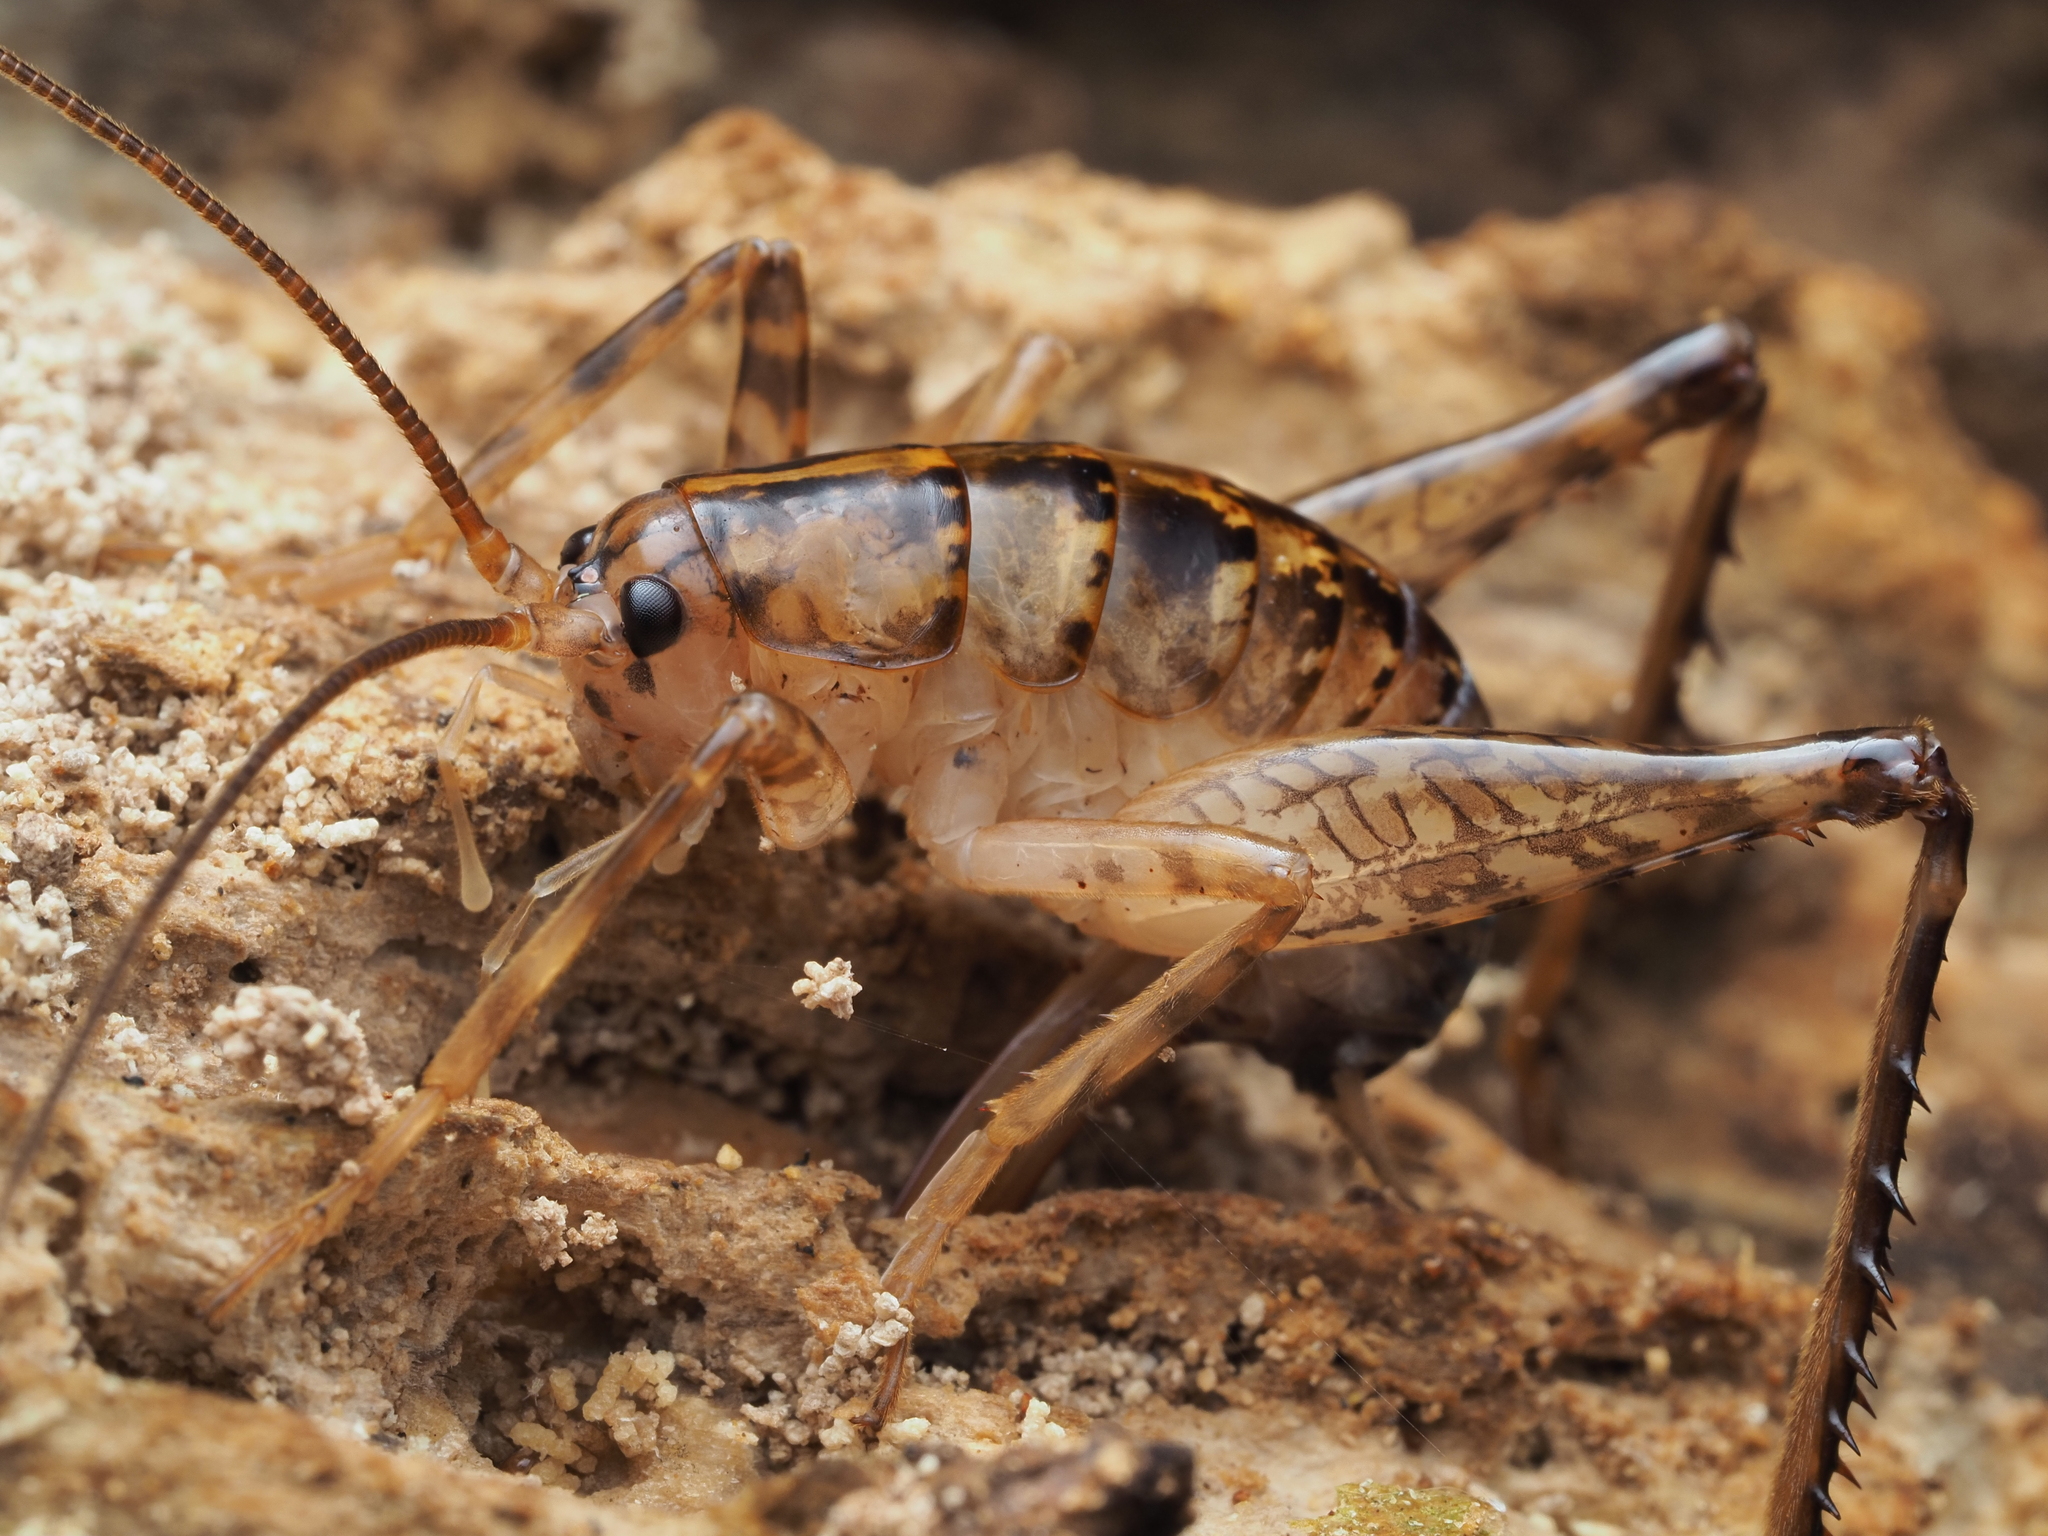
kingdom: Animalia
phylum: Arthropoda
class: Insecta
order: Orthoptera
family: Rhaphidophoridae
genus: Talitropsis
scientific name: Talitropsis sedilloti
